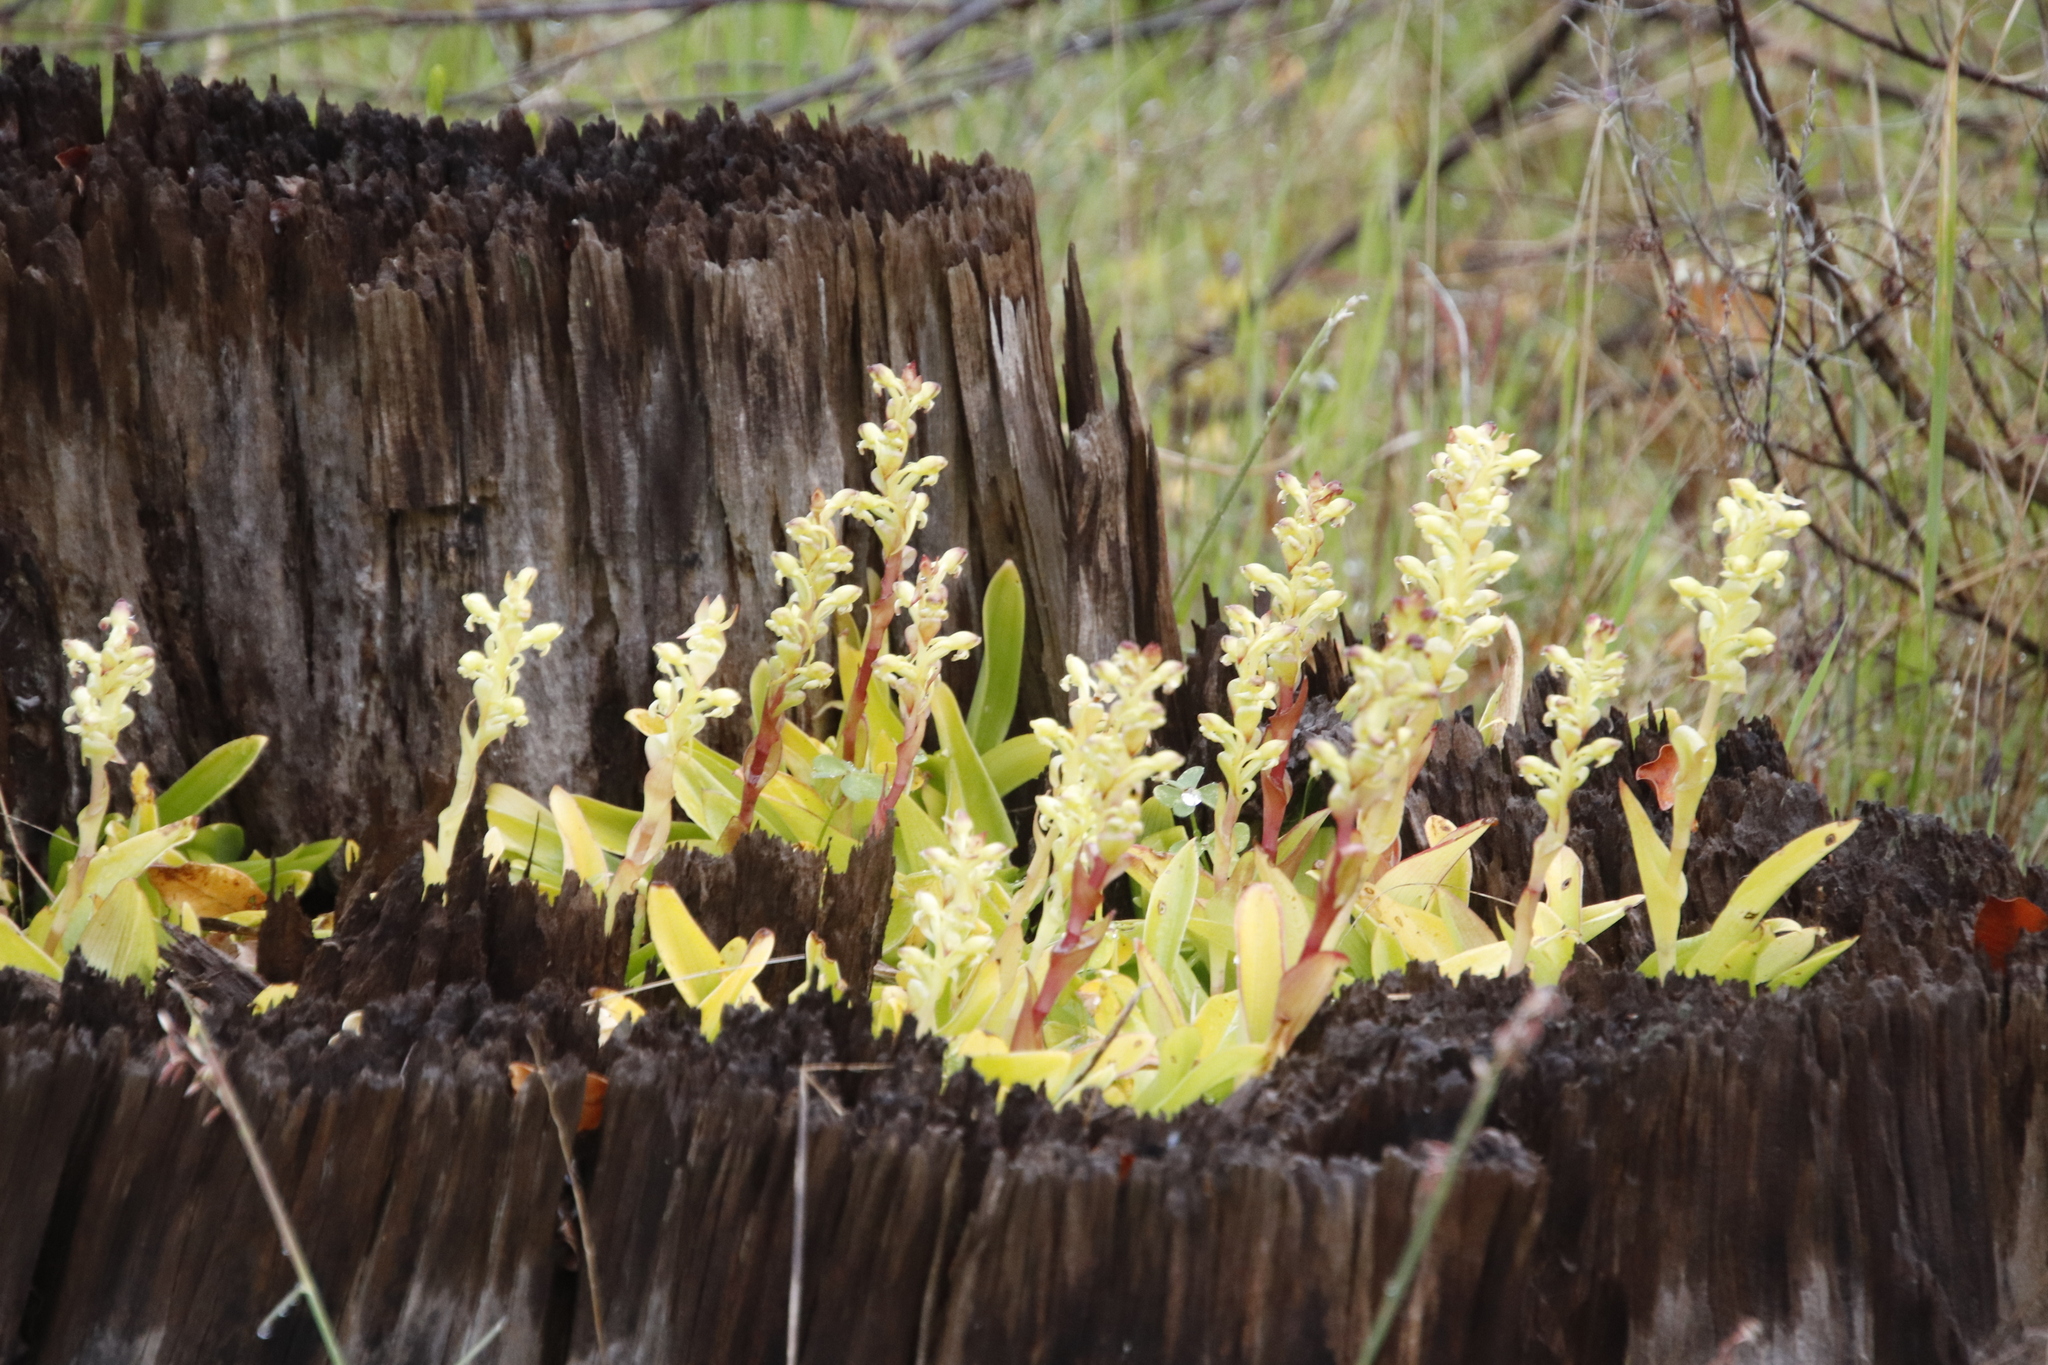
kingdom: Plantae
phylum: Tracheophyta
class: Liliopsida
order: Asparagales
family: Orchidaceae
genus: Satyrium
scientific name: Satyrium odorum
